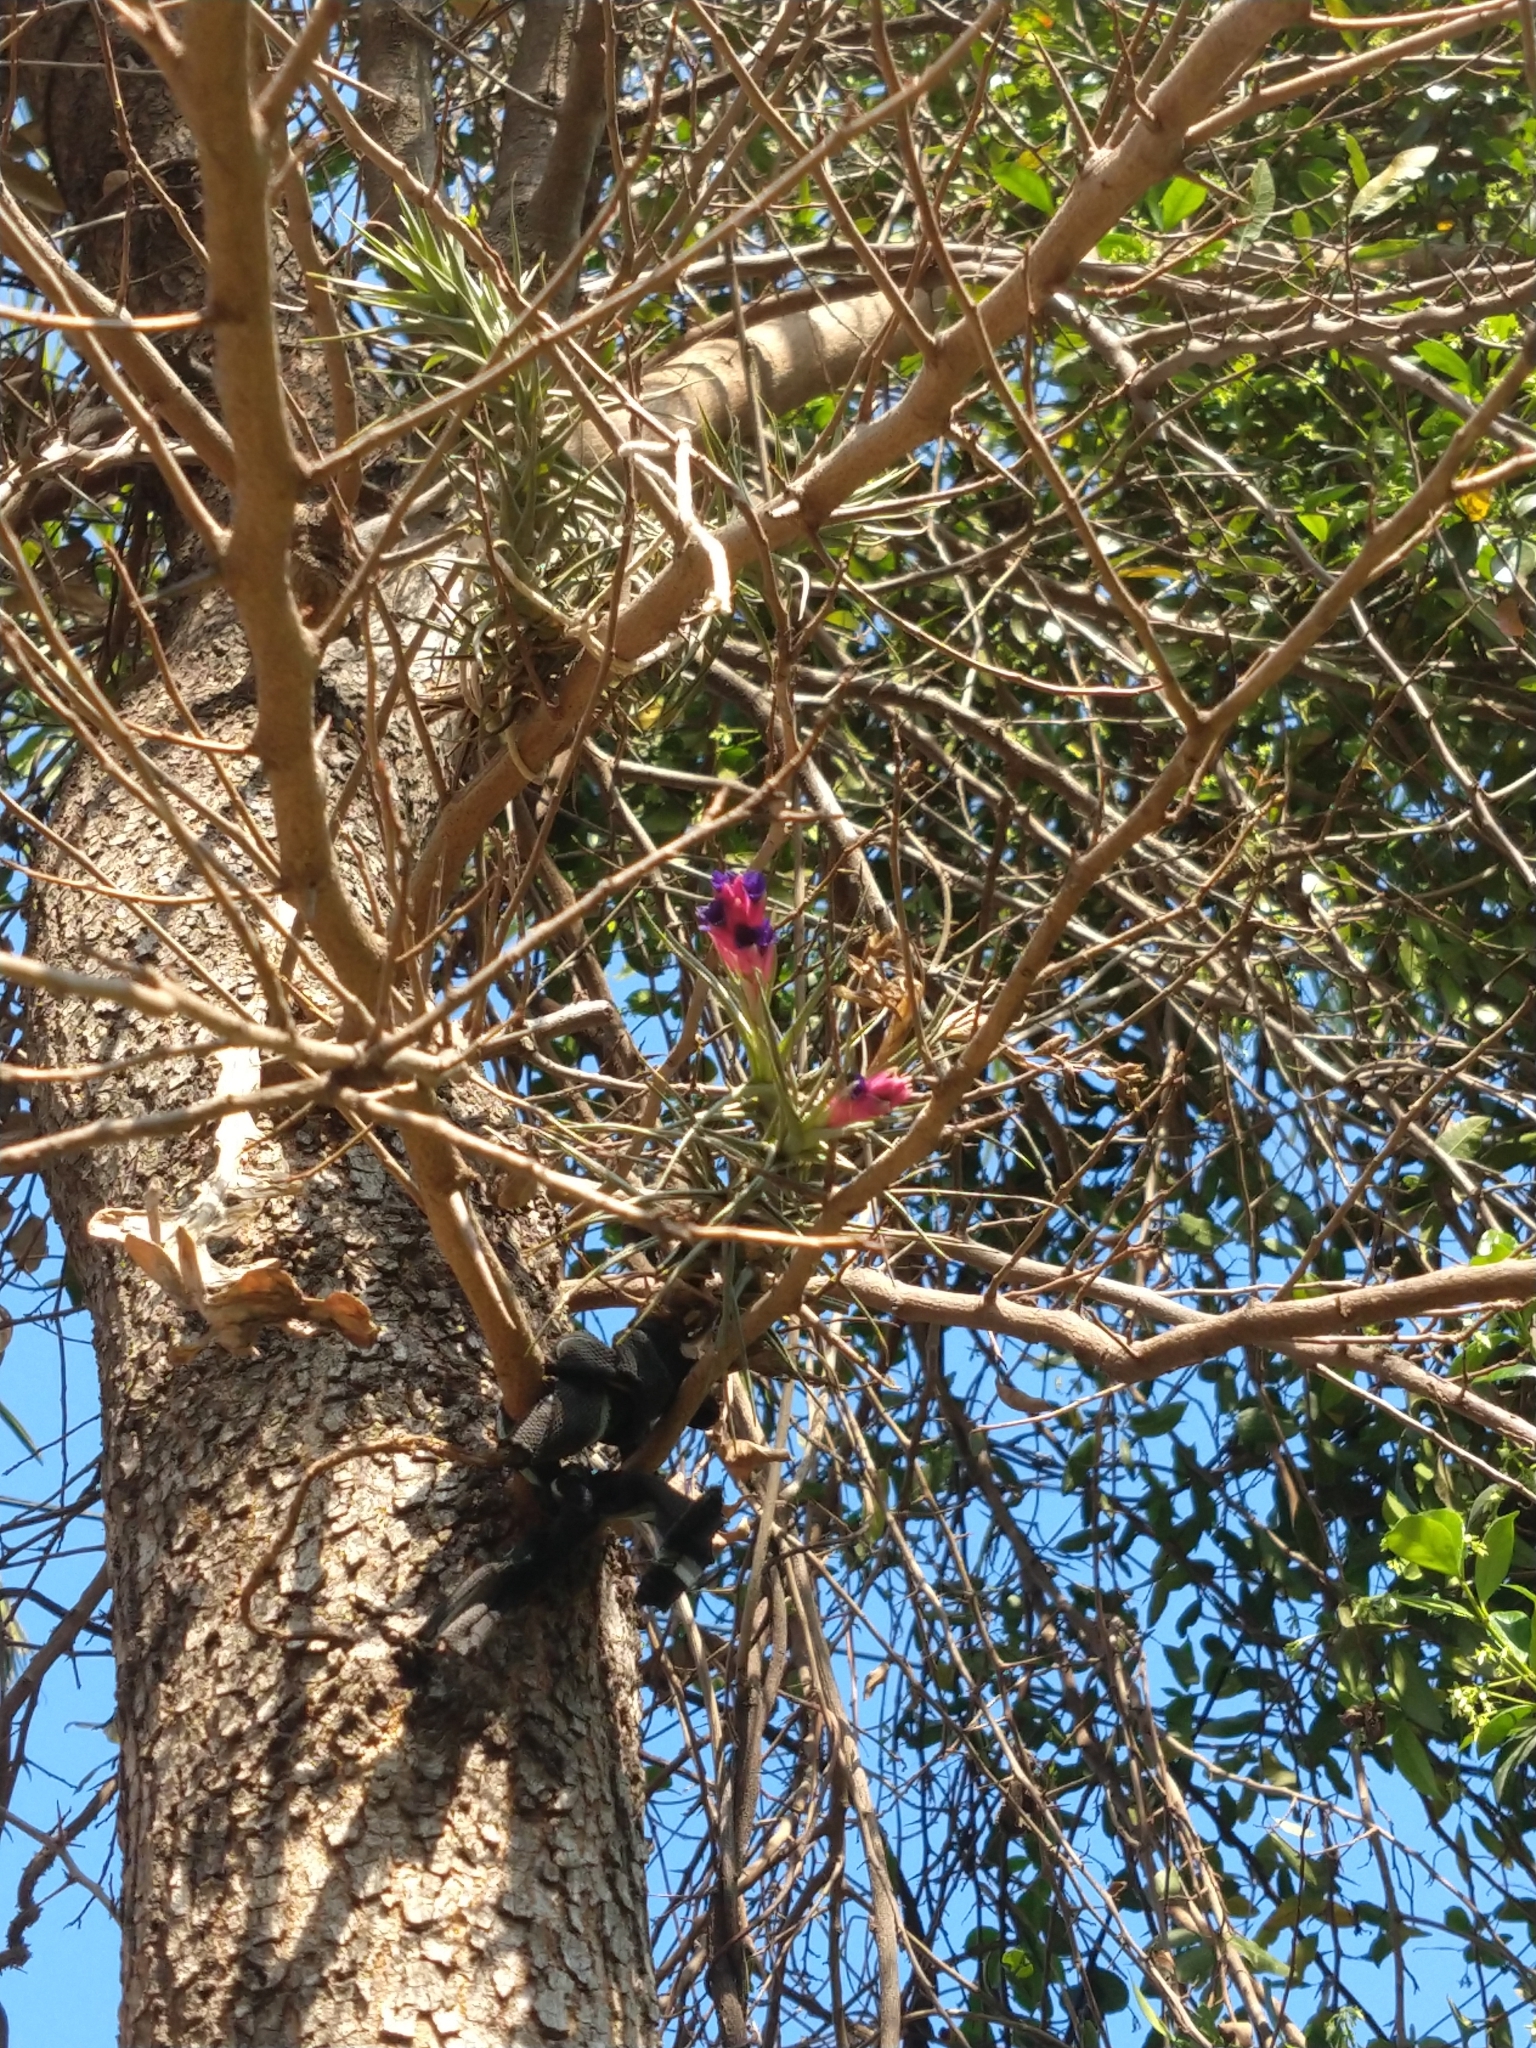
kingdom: Plantae
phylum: Tracheophyta
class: Liliopsida
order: Poales
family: Bromeliaceae
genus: Tillandsia
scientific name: Tillandsia aeranthos
